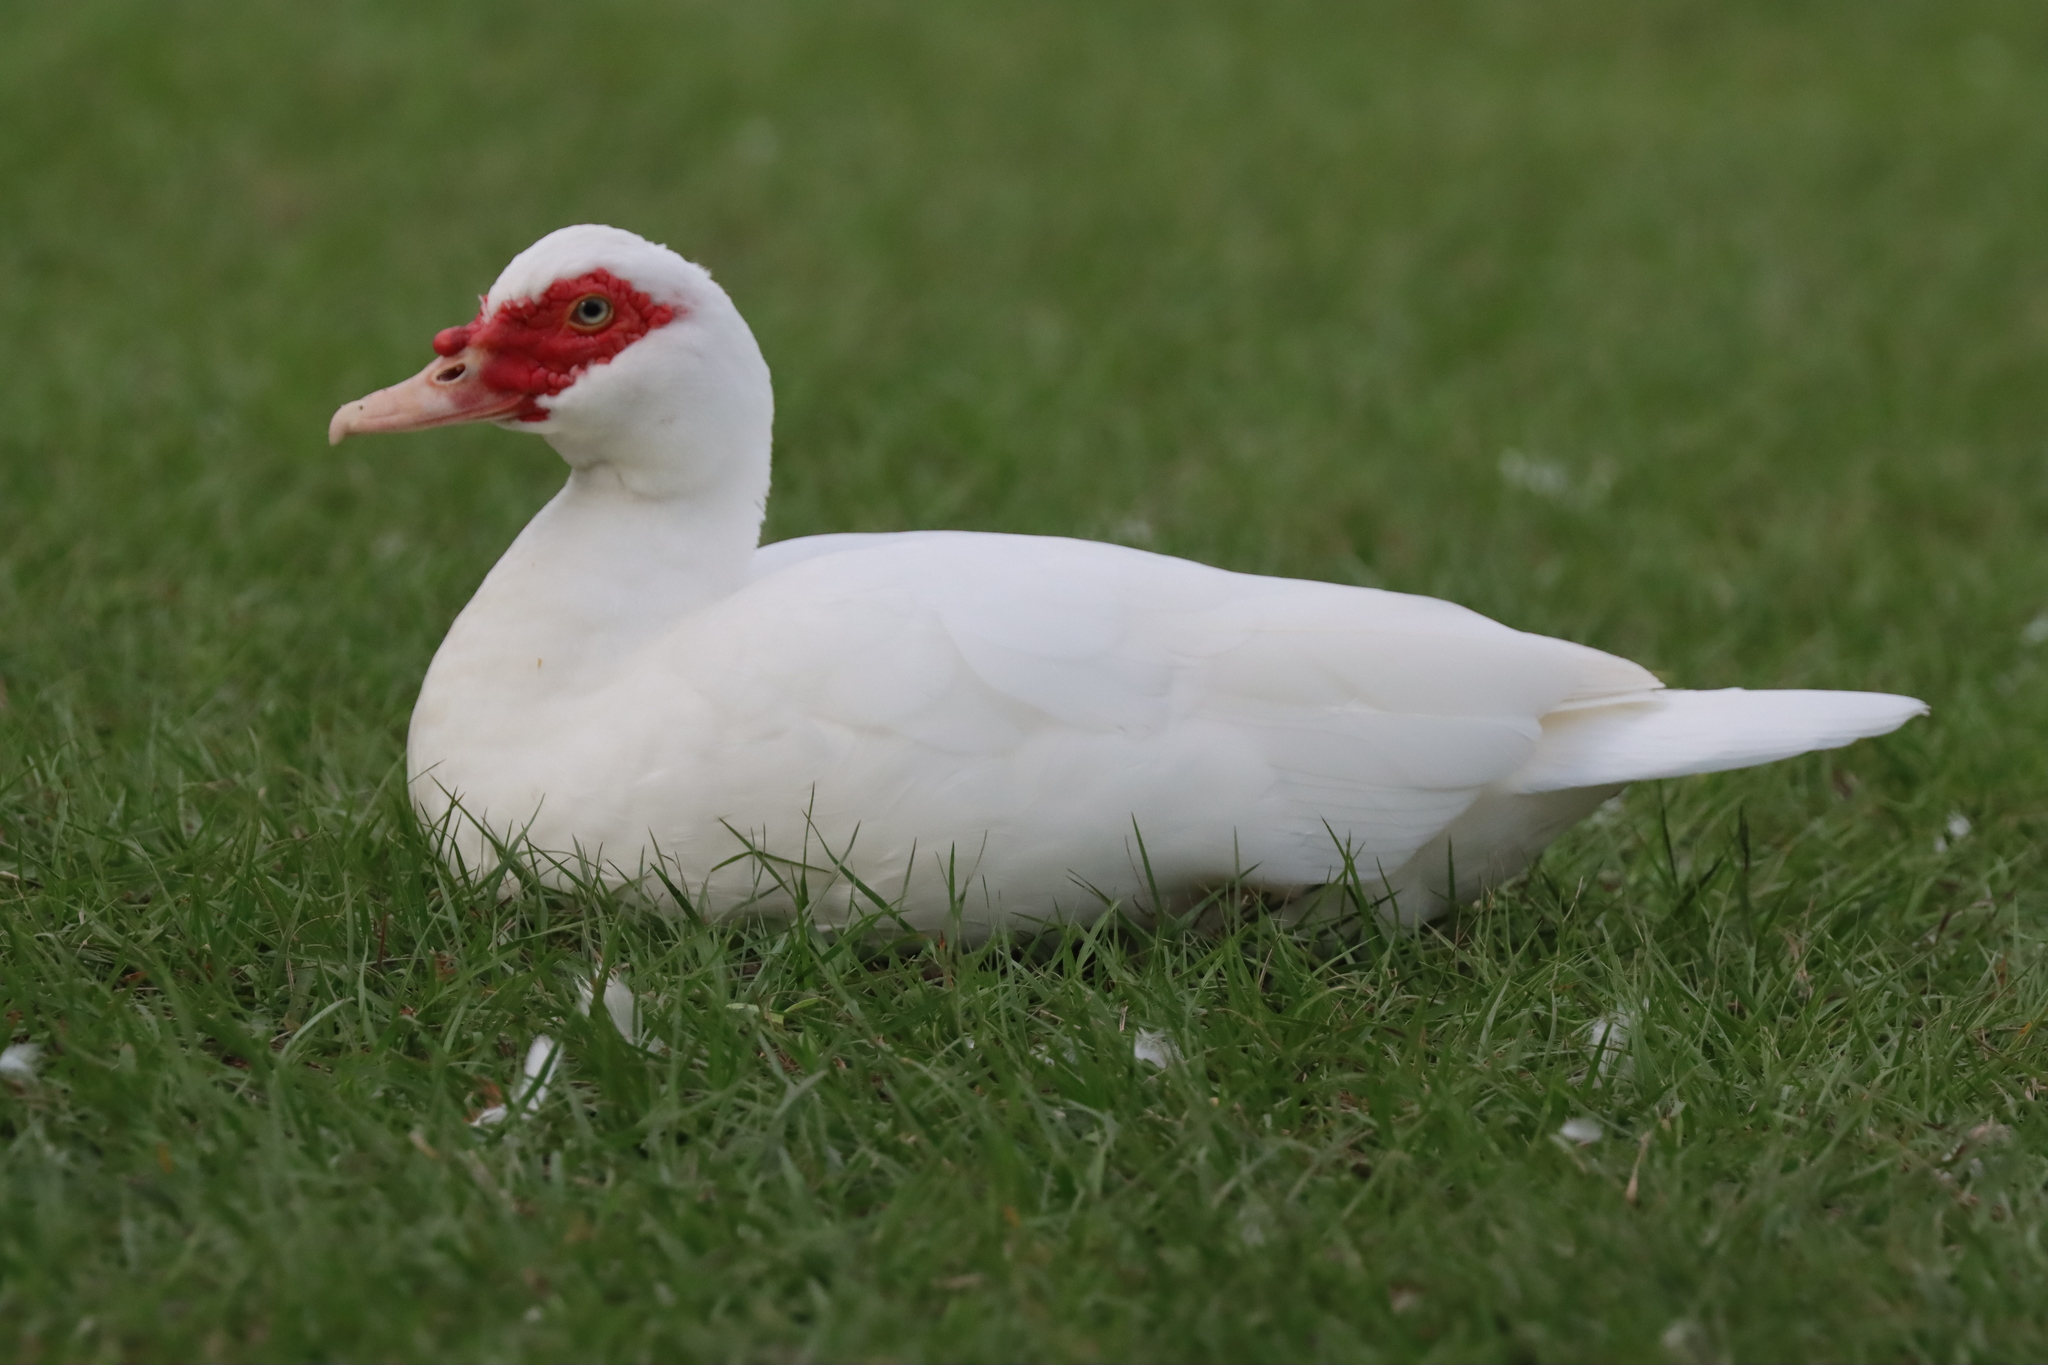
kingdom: Animalia
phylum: Chordata
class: Aves
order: Anseriformes
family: Anatidae
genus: Cairina
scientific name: Cairina moschata
